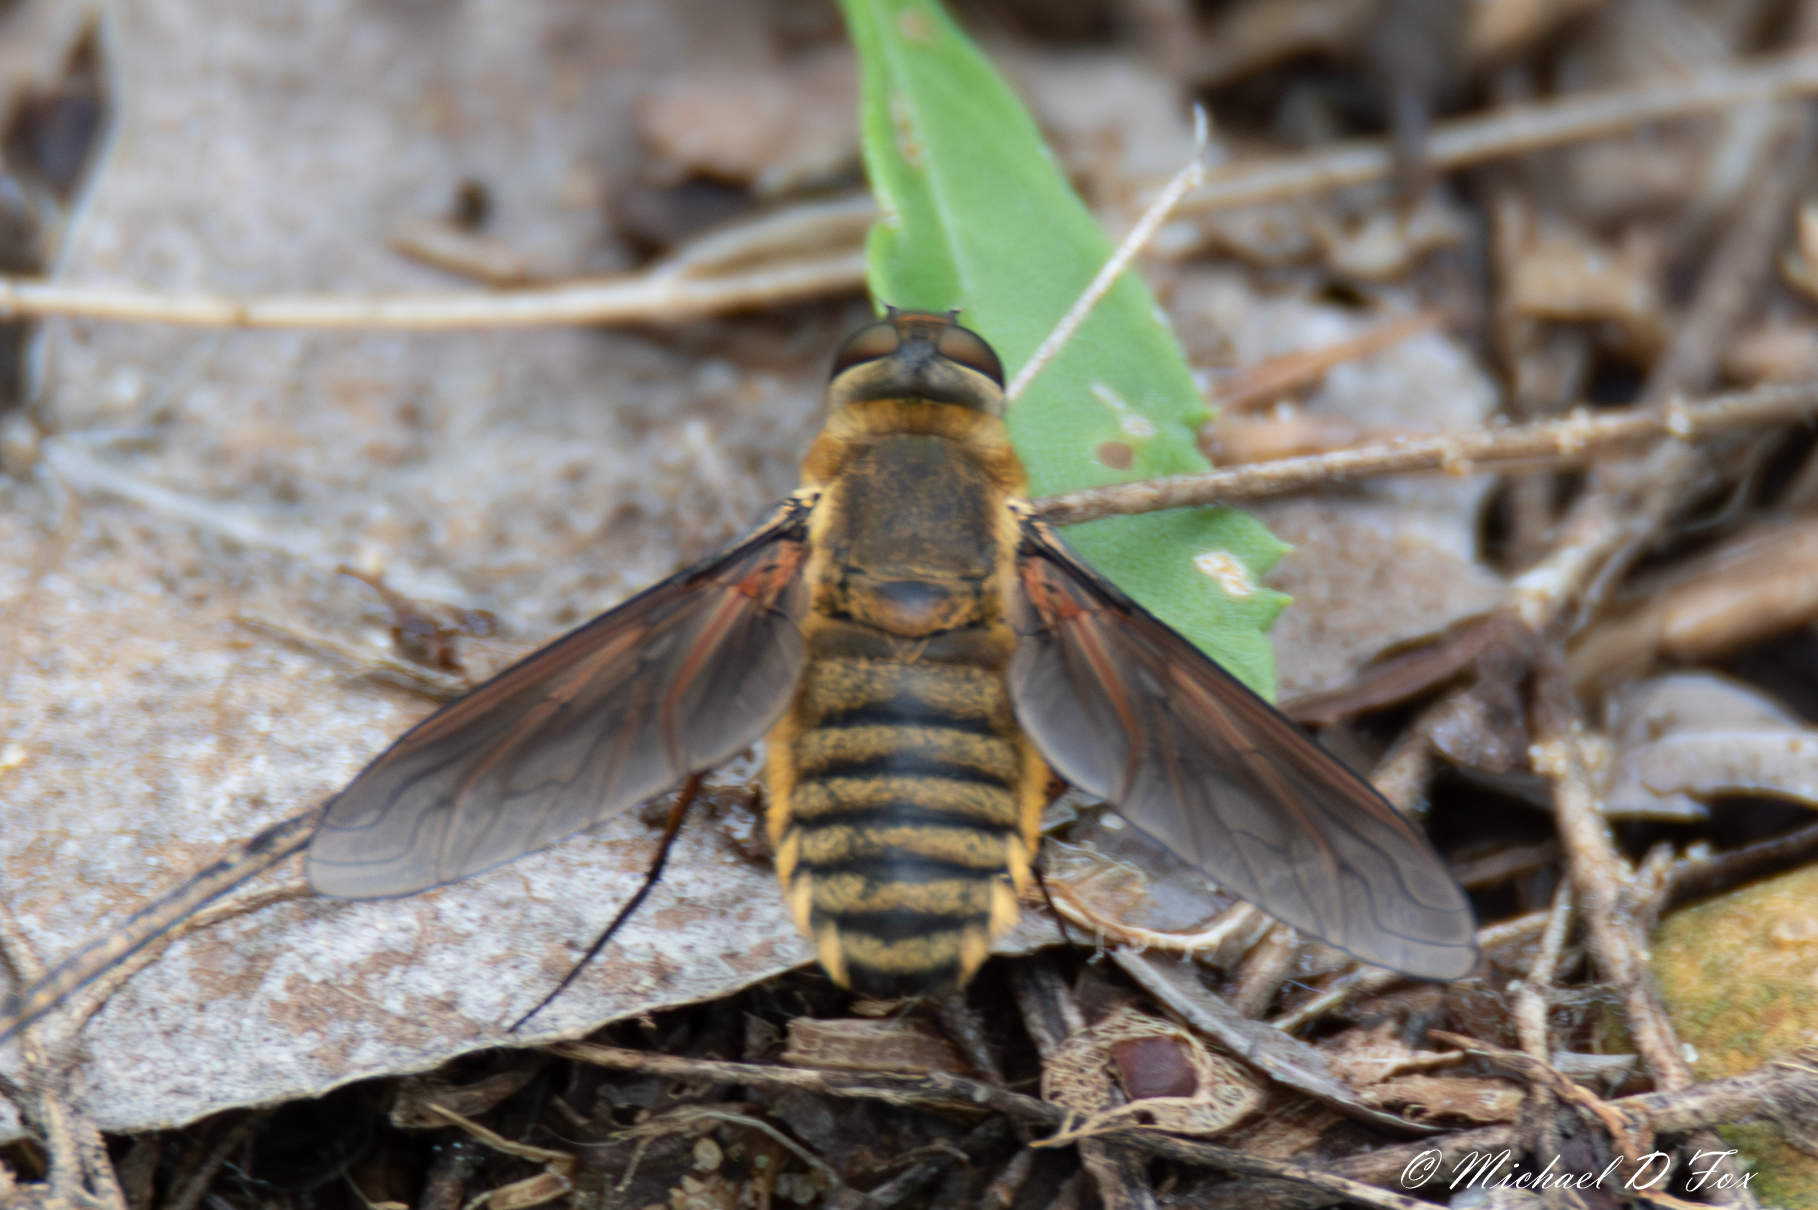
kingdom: Animalia
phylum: Arthropoda
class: Insecta
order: Diptera
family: Bombyliidae
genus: Poecilanthrax
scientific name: Poecilanthrax lucifer
